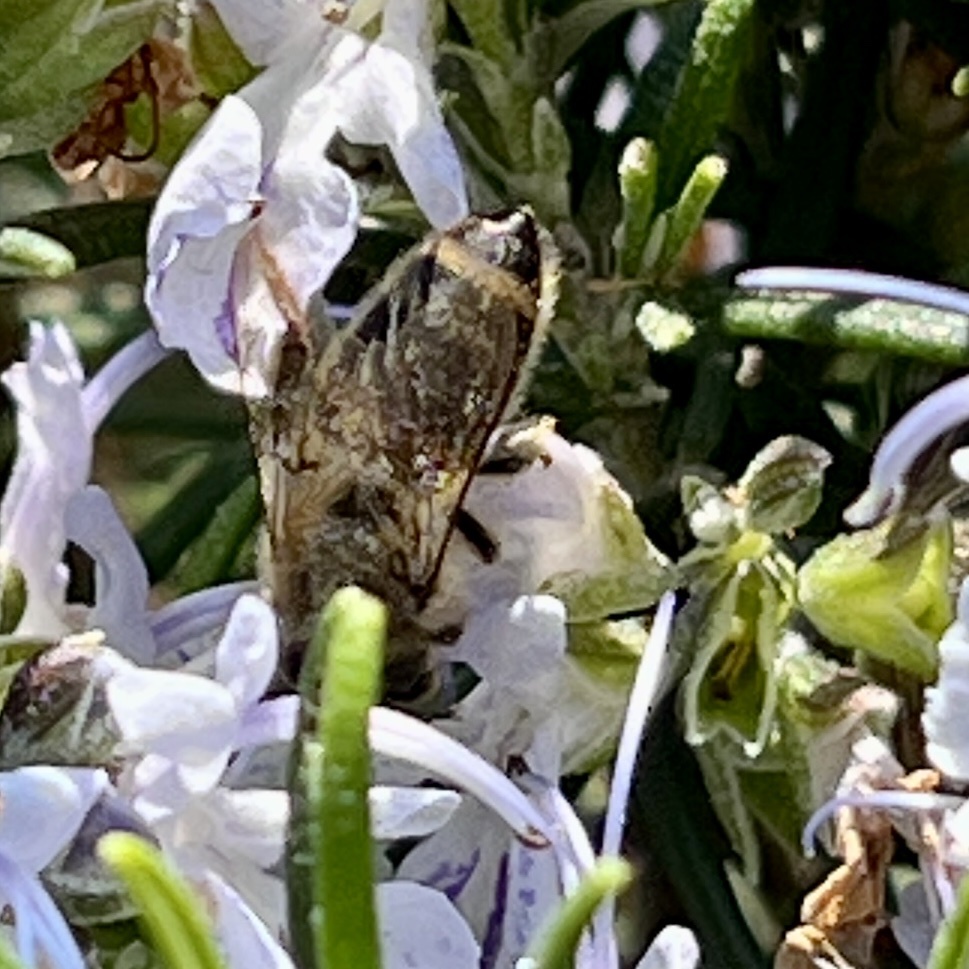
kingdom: Animalia
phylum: Arthropoda
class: Insecta
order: Hymenoptera
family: Apidae
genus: Apis
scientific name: Apis mellifera
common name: Honey bee
